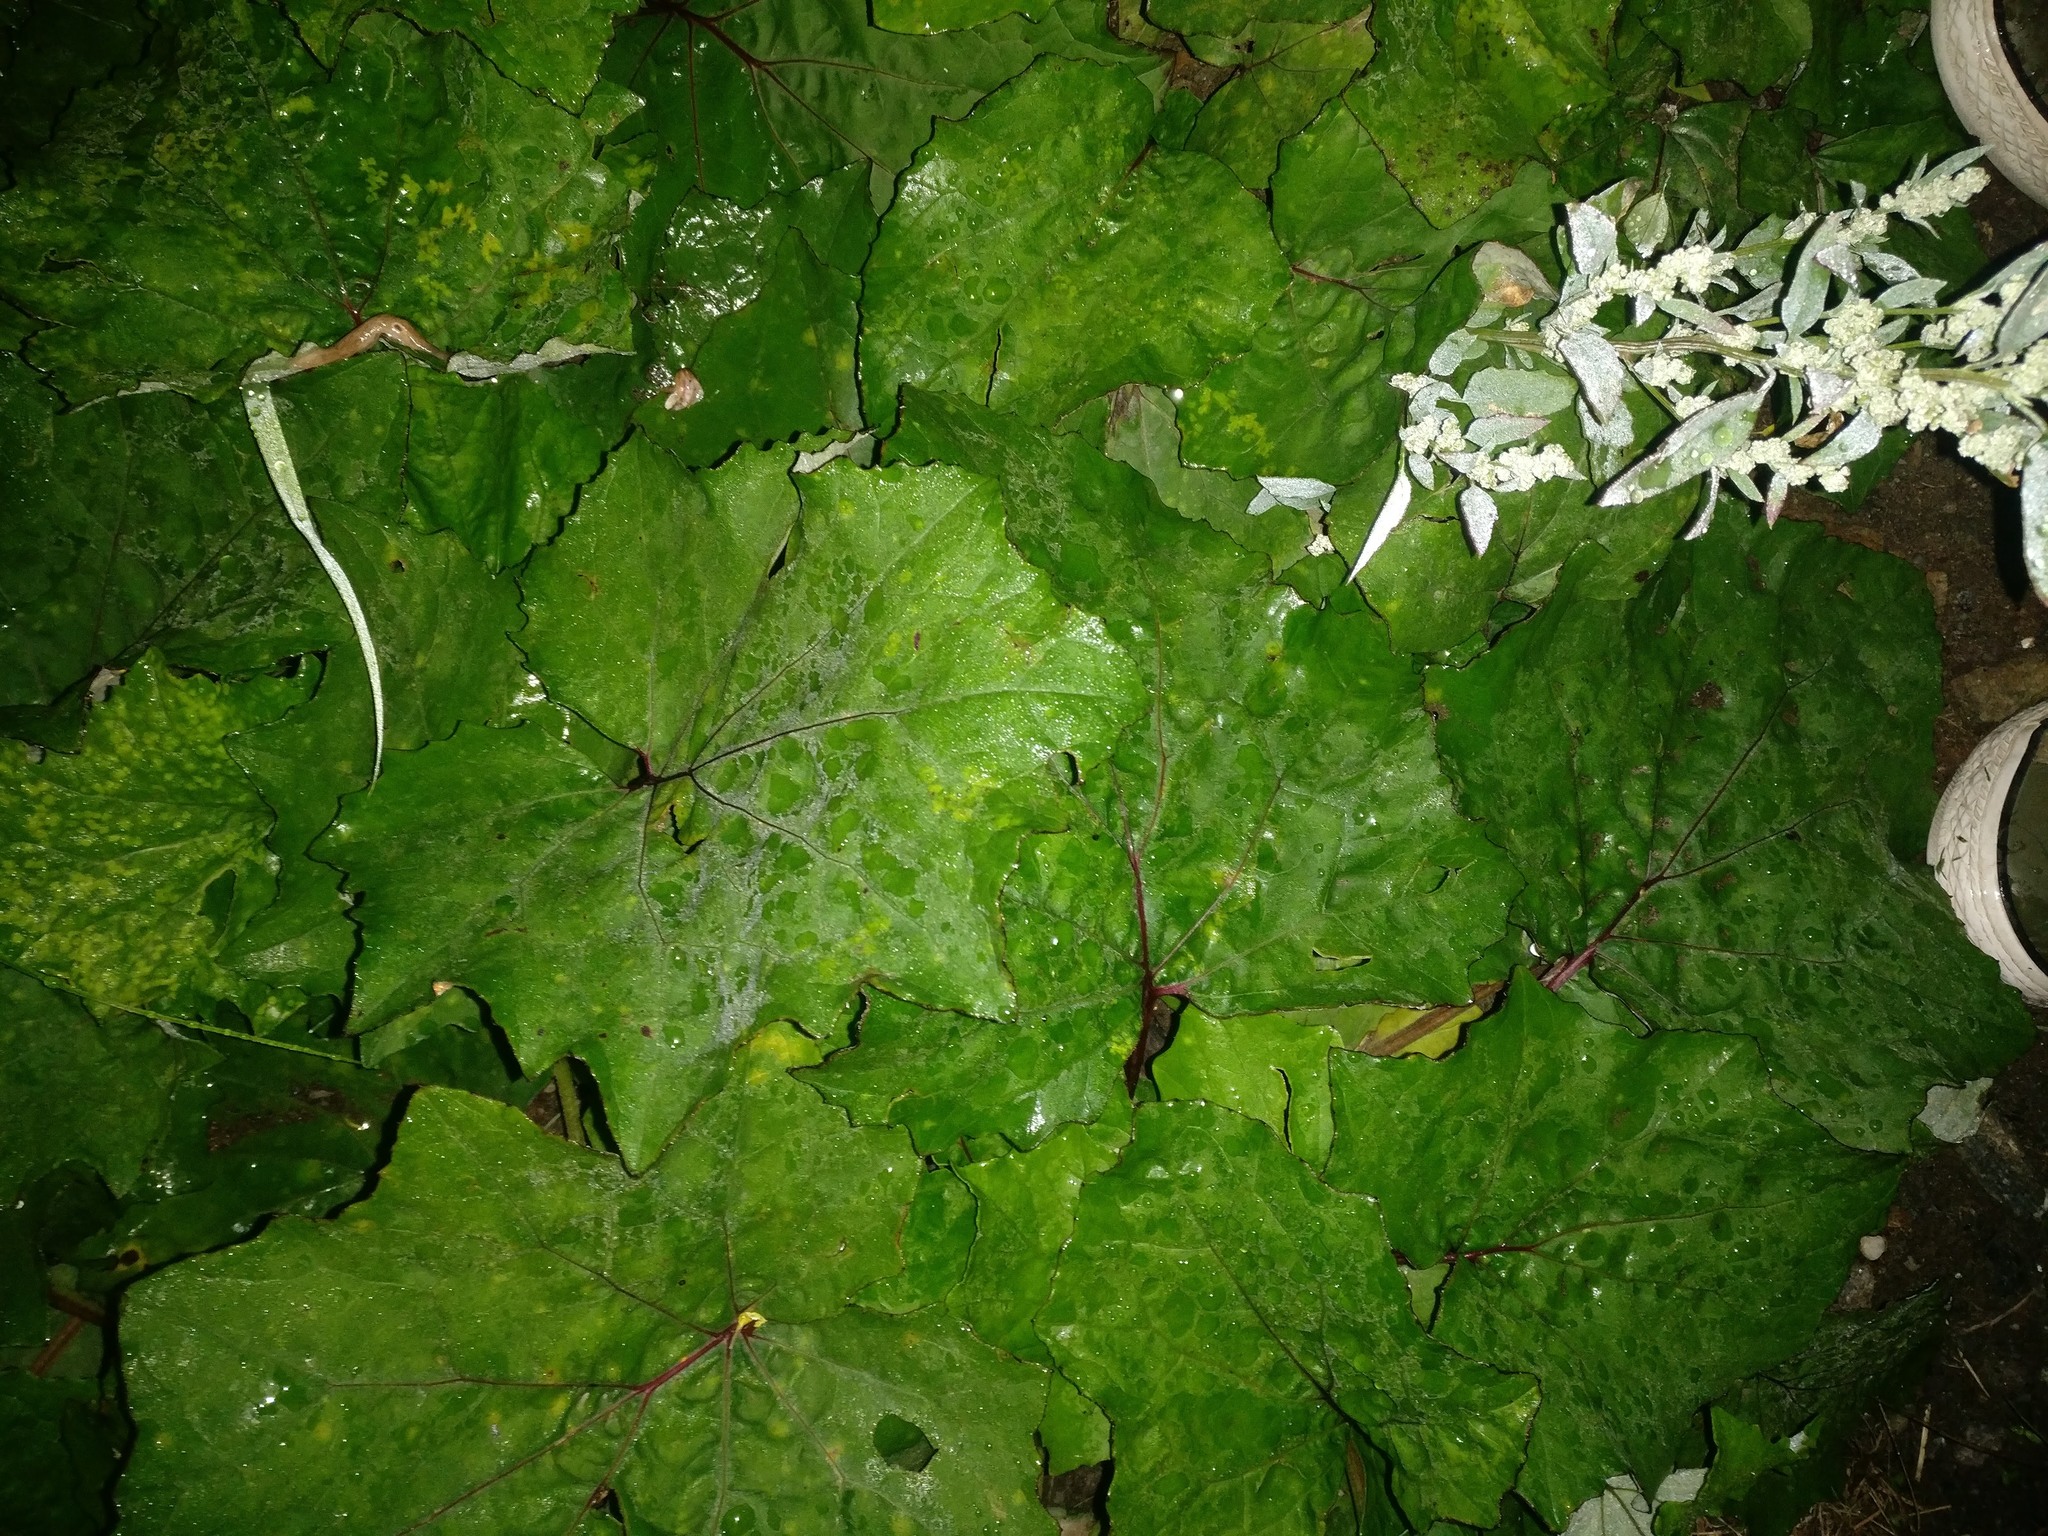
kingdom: Plantae
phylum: Tracheophyta
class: Magnoliopsida
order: Asterales
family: Asteraceae
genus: Tussilago
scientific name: Tussilago farfara
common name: Coltsfoot
